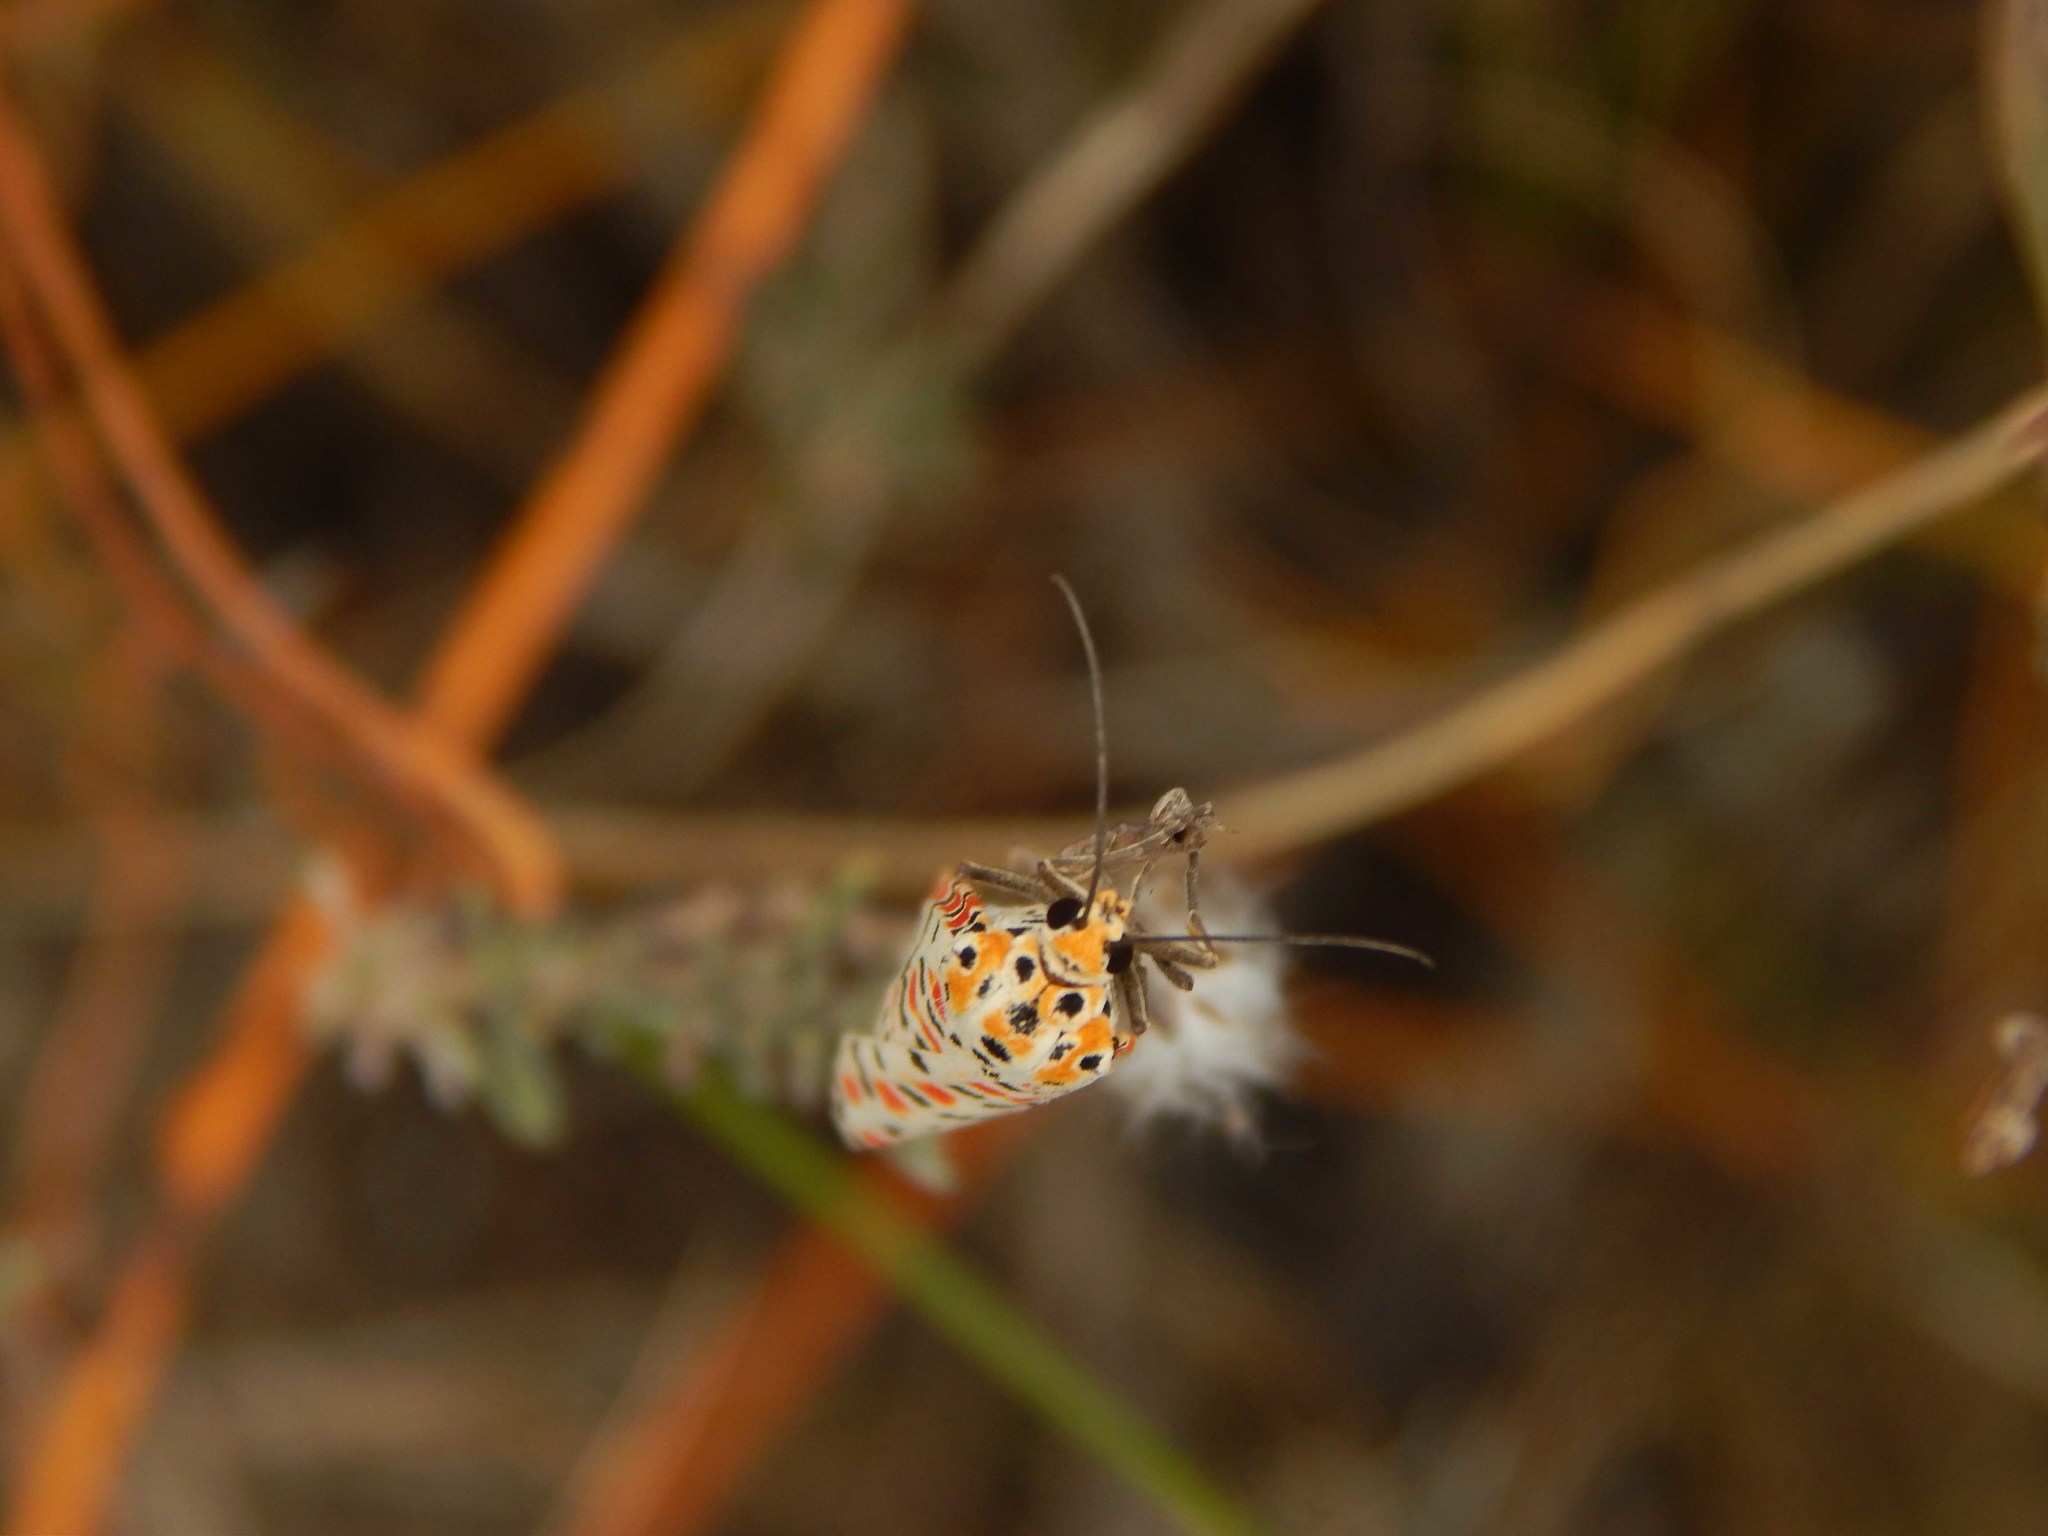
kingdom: Animalia
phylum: Arthropoda
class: Insecta
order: Lepidoptera
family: Erebidae
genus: Utetheisa
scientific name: Utetheisa pulchella
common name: Crimson speckled
